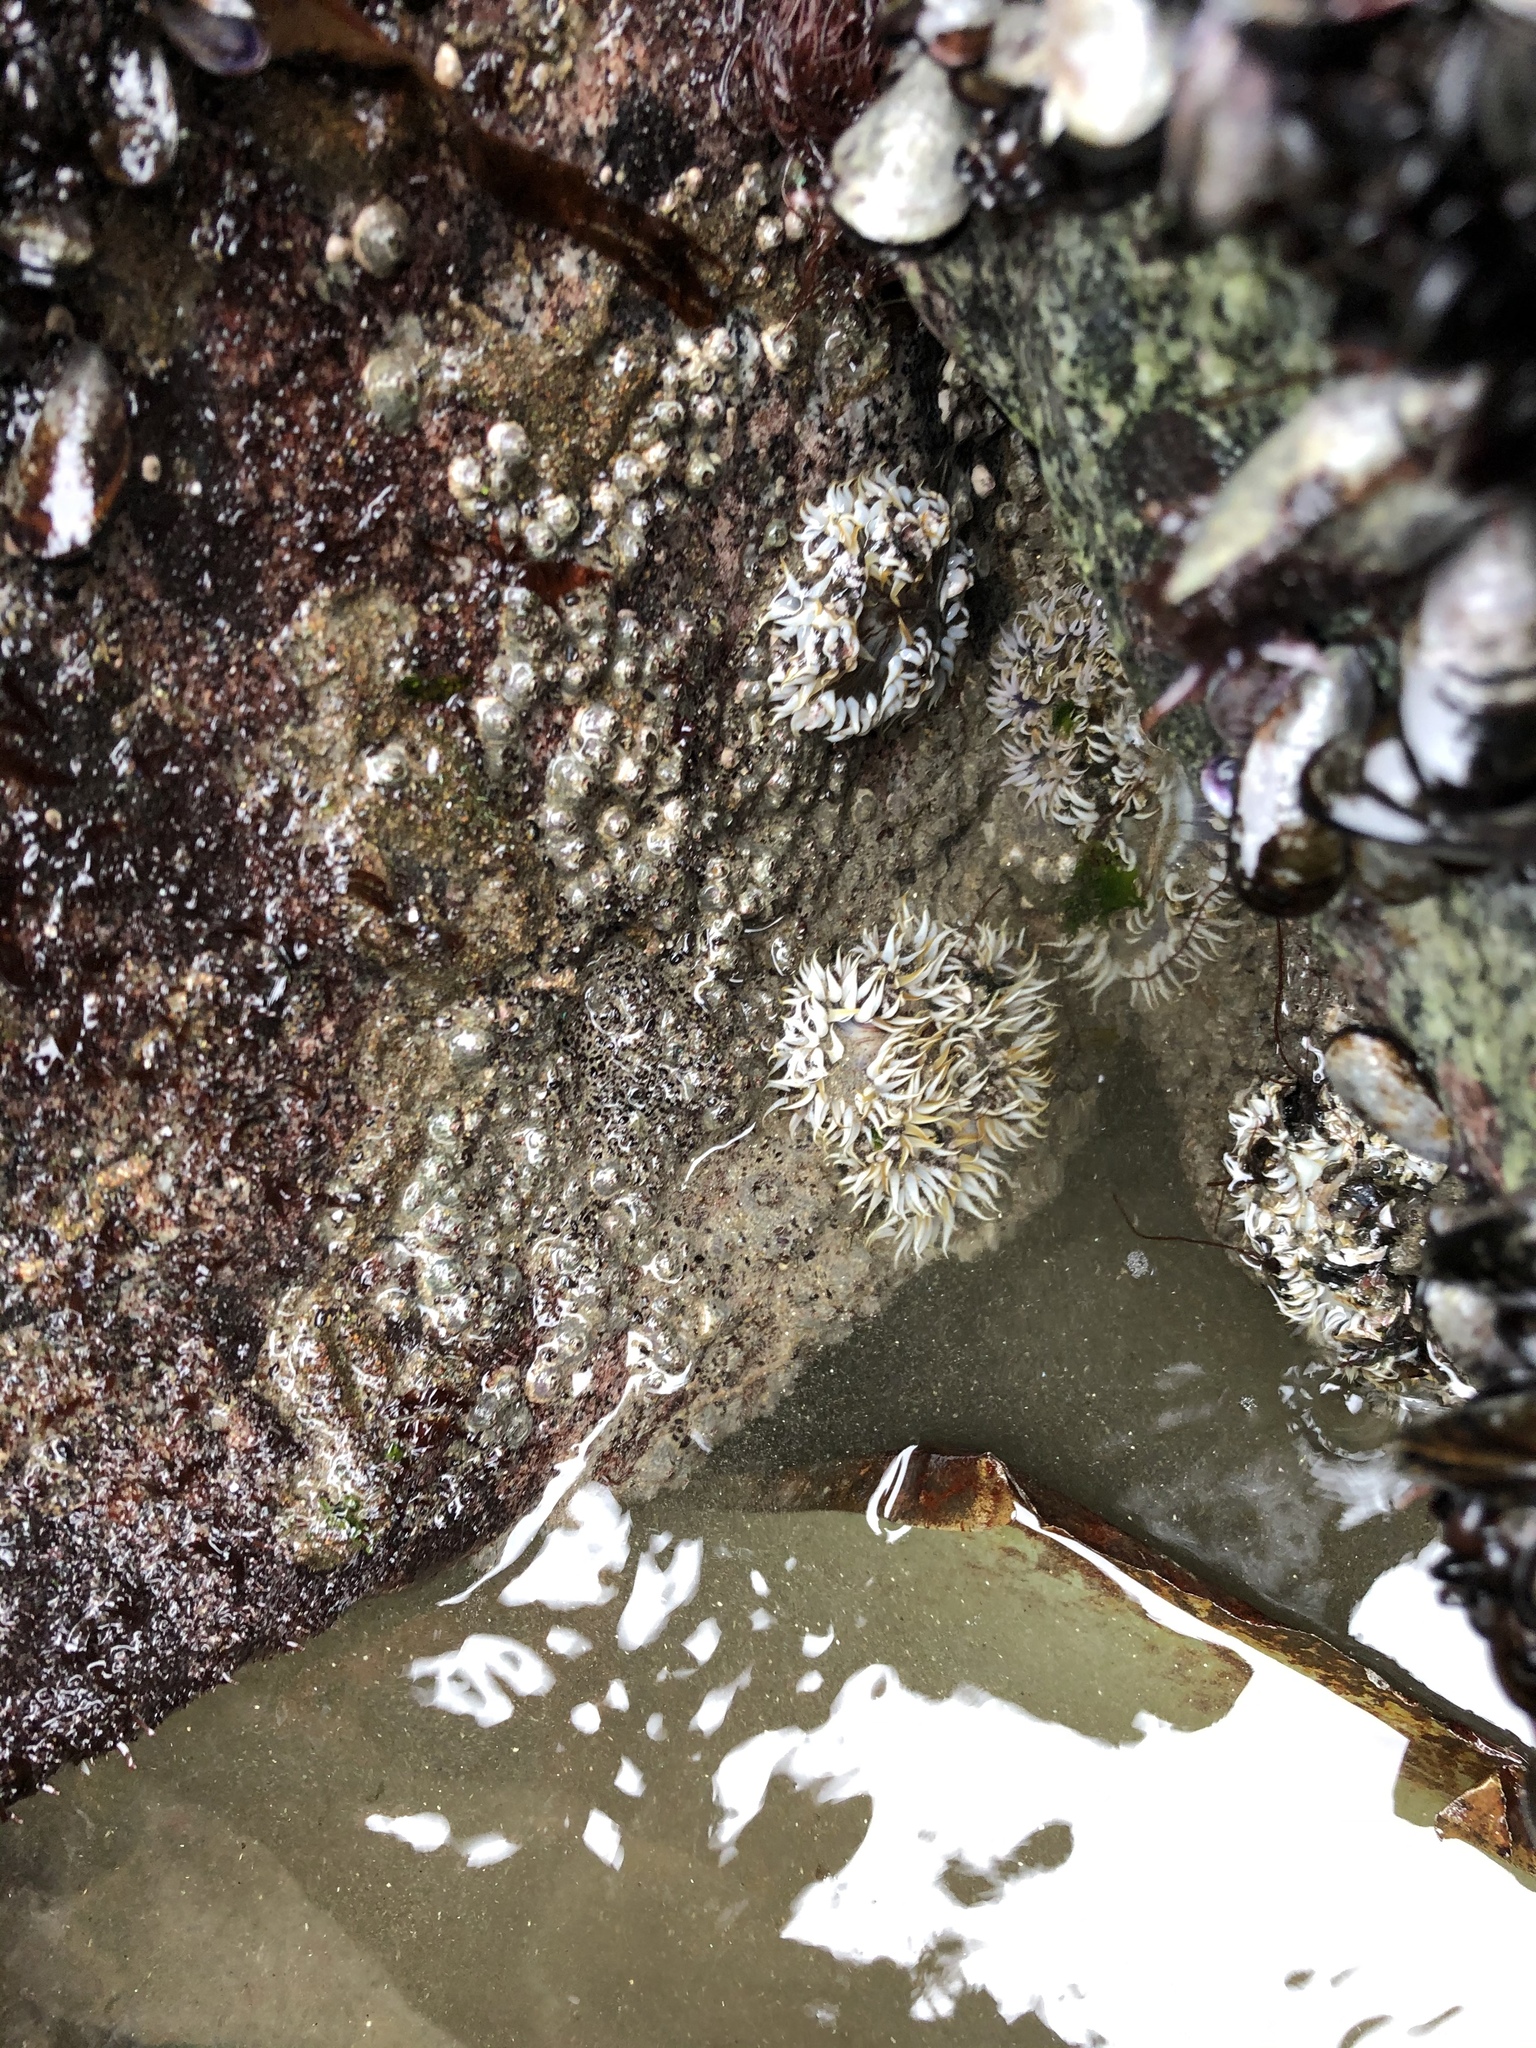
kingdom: Animalia
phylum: Cnidaria
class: Anthozoa
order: Actiniaria
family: Actiniidae
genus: Oulactis
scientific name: Oulactis concinnata
